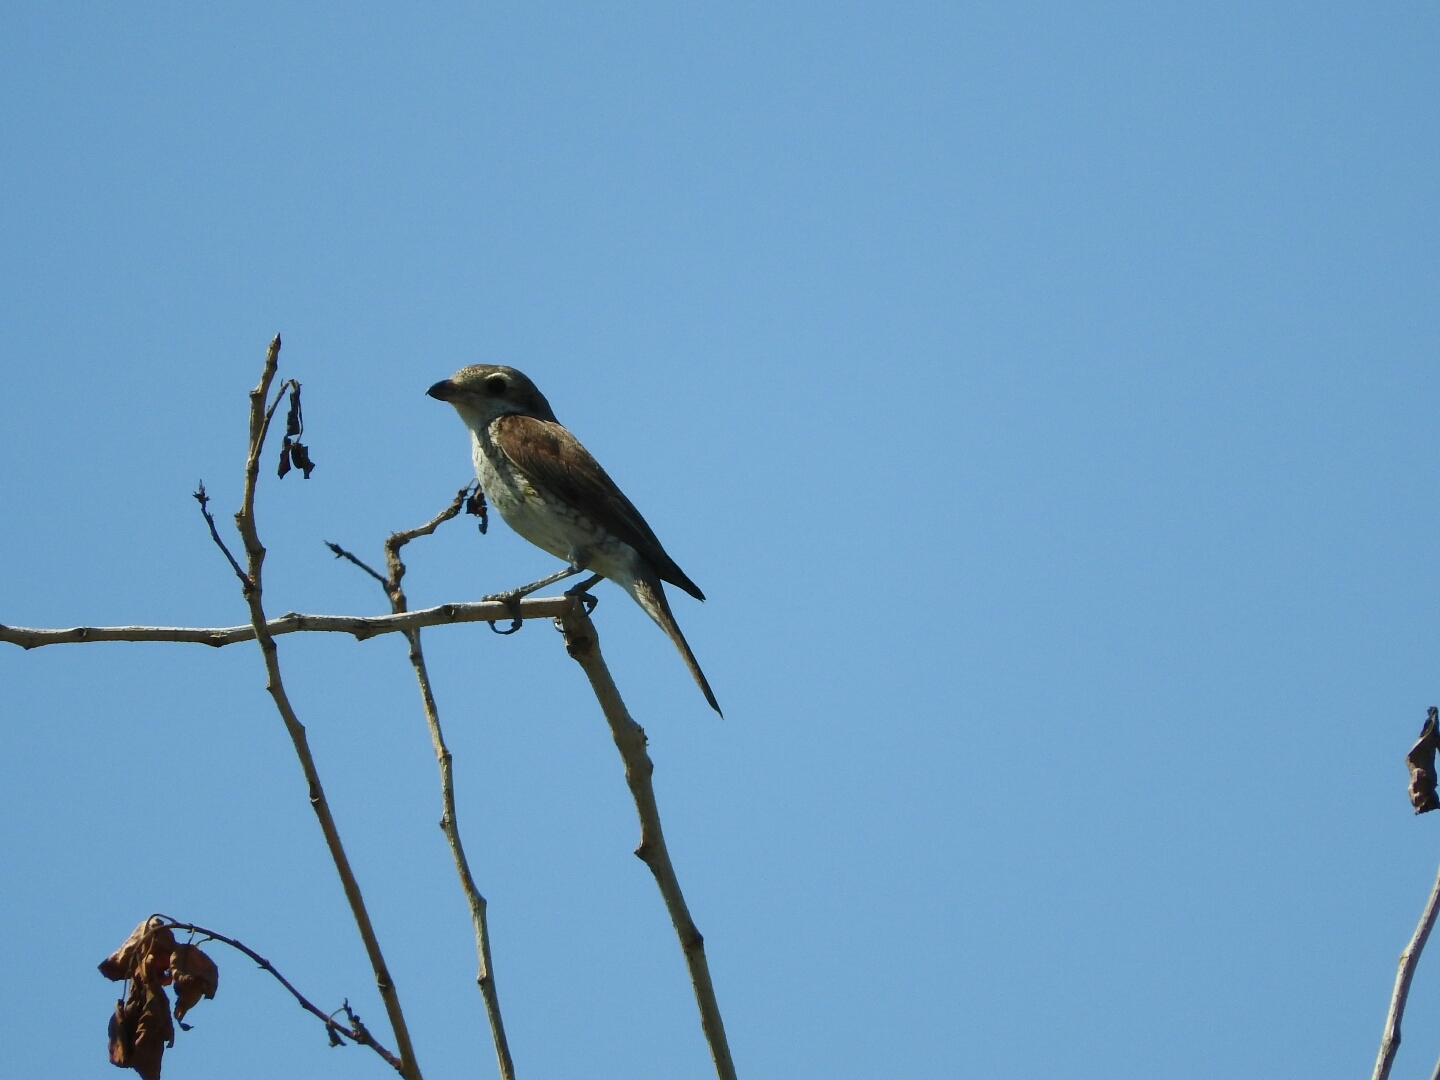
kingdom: Animalia
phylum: Chordata
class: Aves
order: Passeriformes
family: Laniidae
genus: Lanius
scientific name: Lanius collurio
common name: Red-backed shrike
